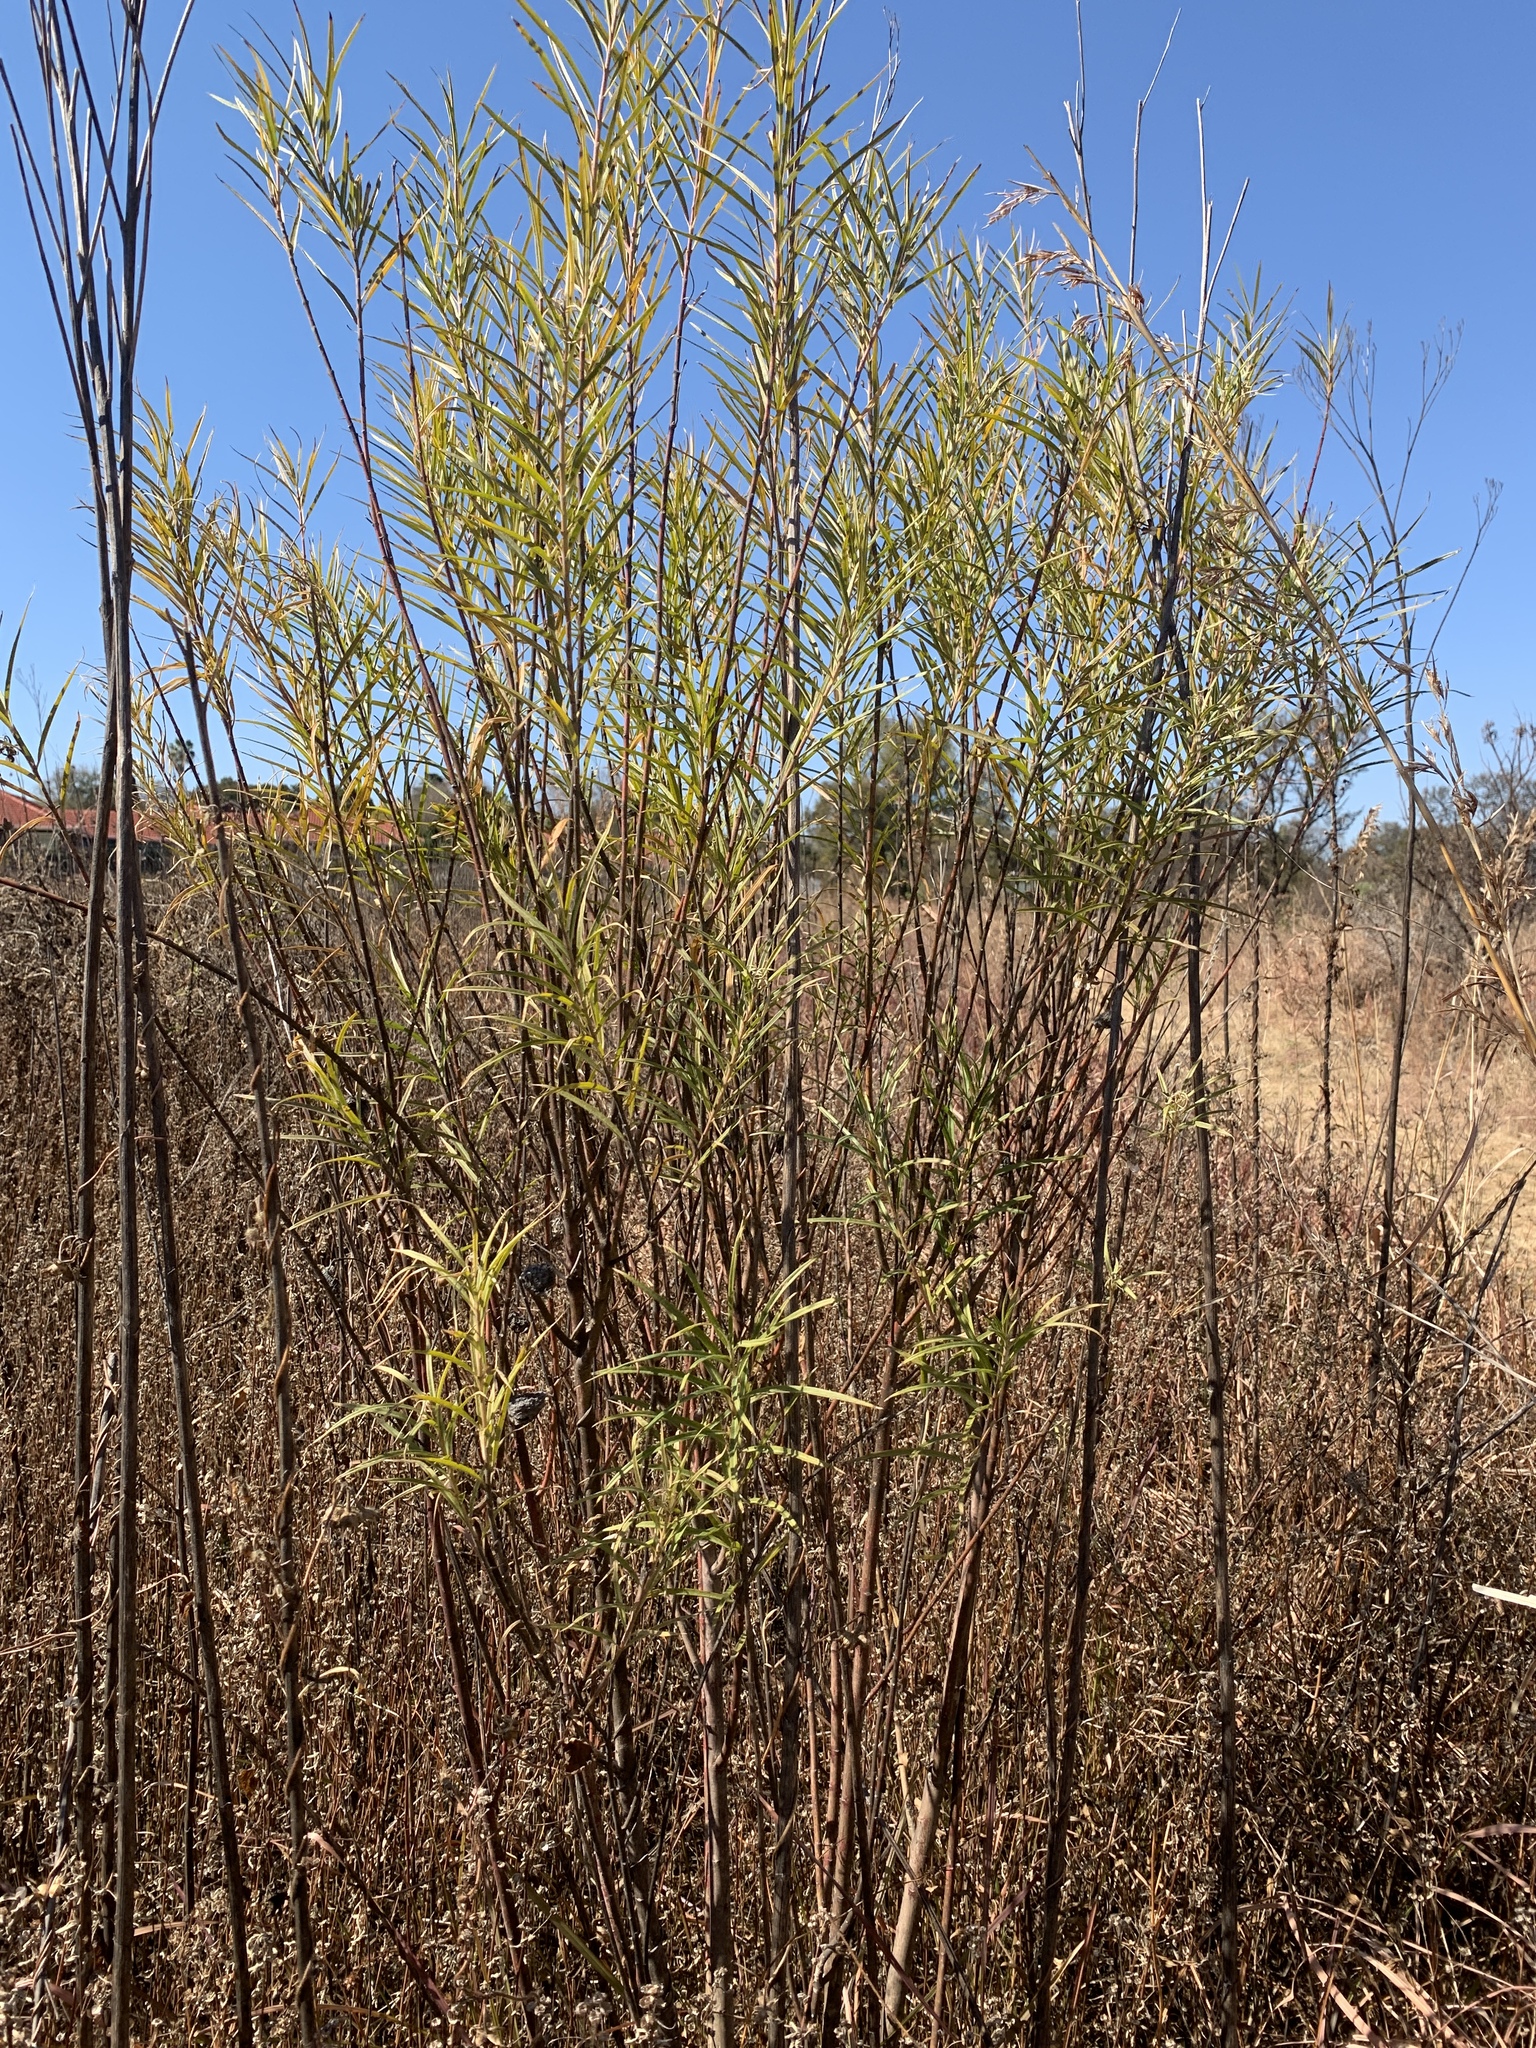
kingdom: Plantae
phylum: Tracheophyta
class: Magnoliopsida
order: Gentianales
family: Apocynaceae
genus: Gomphocarpus
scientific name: Gomphocarpus fruticosus
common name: Milkweed
